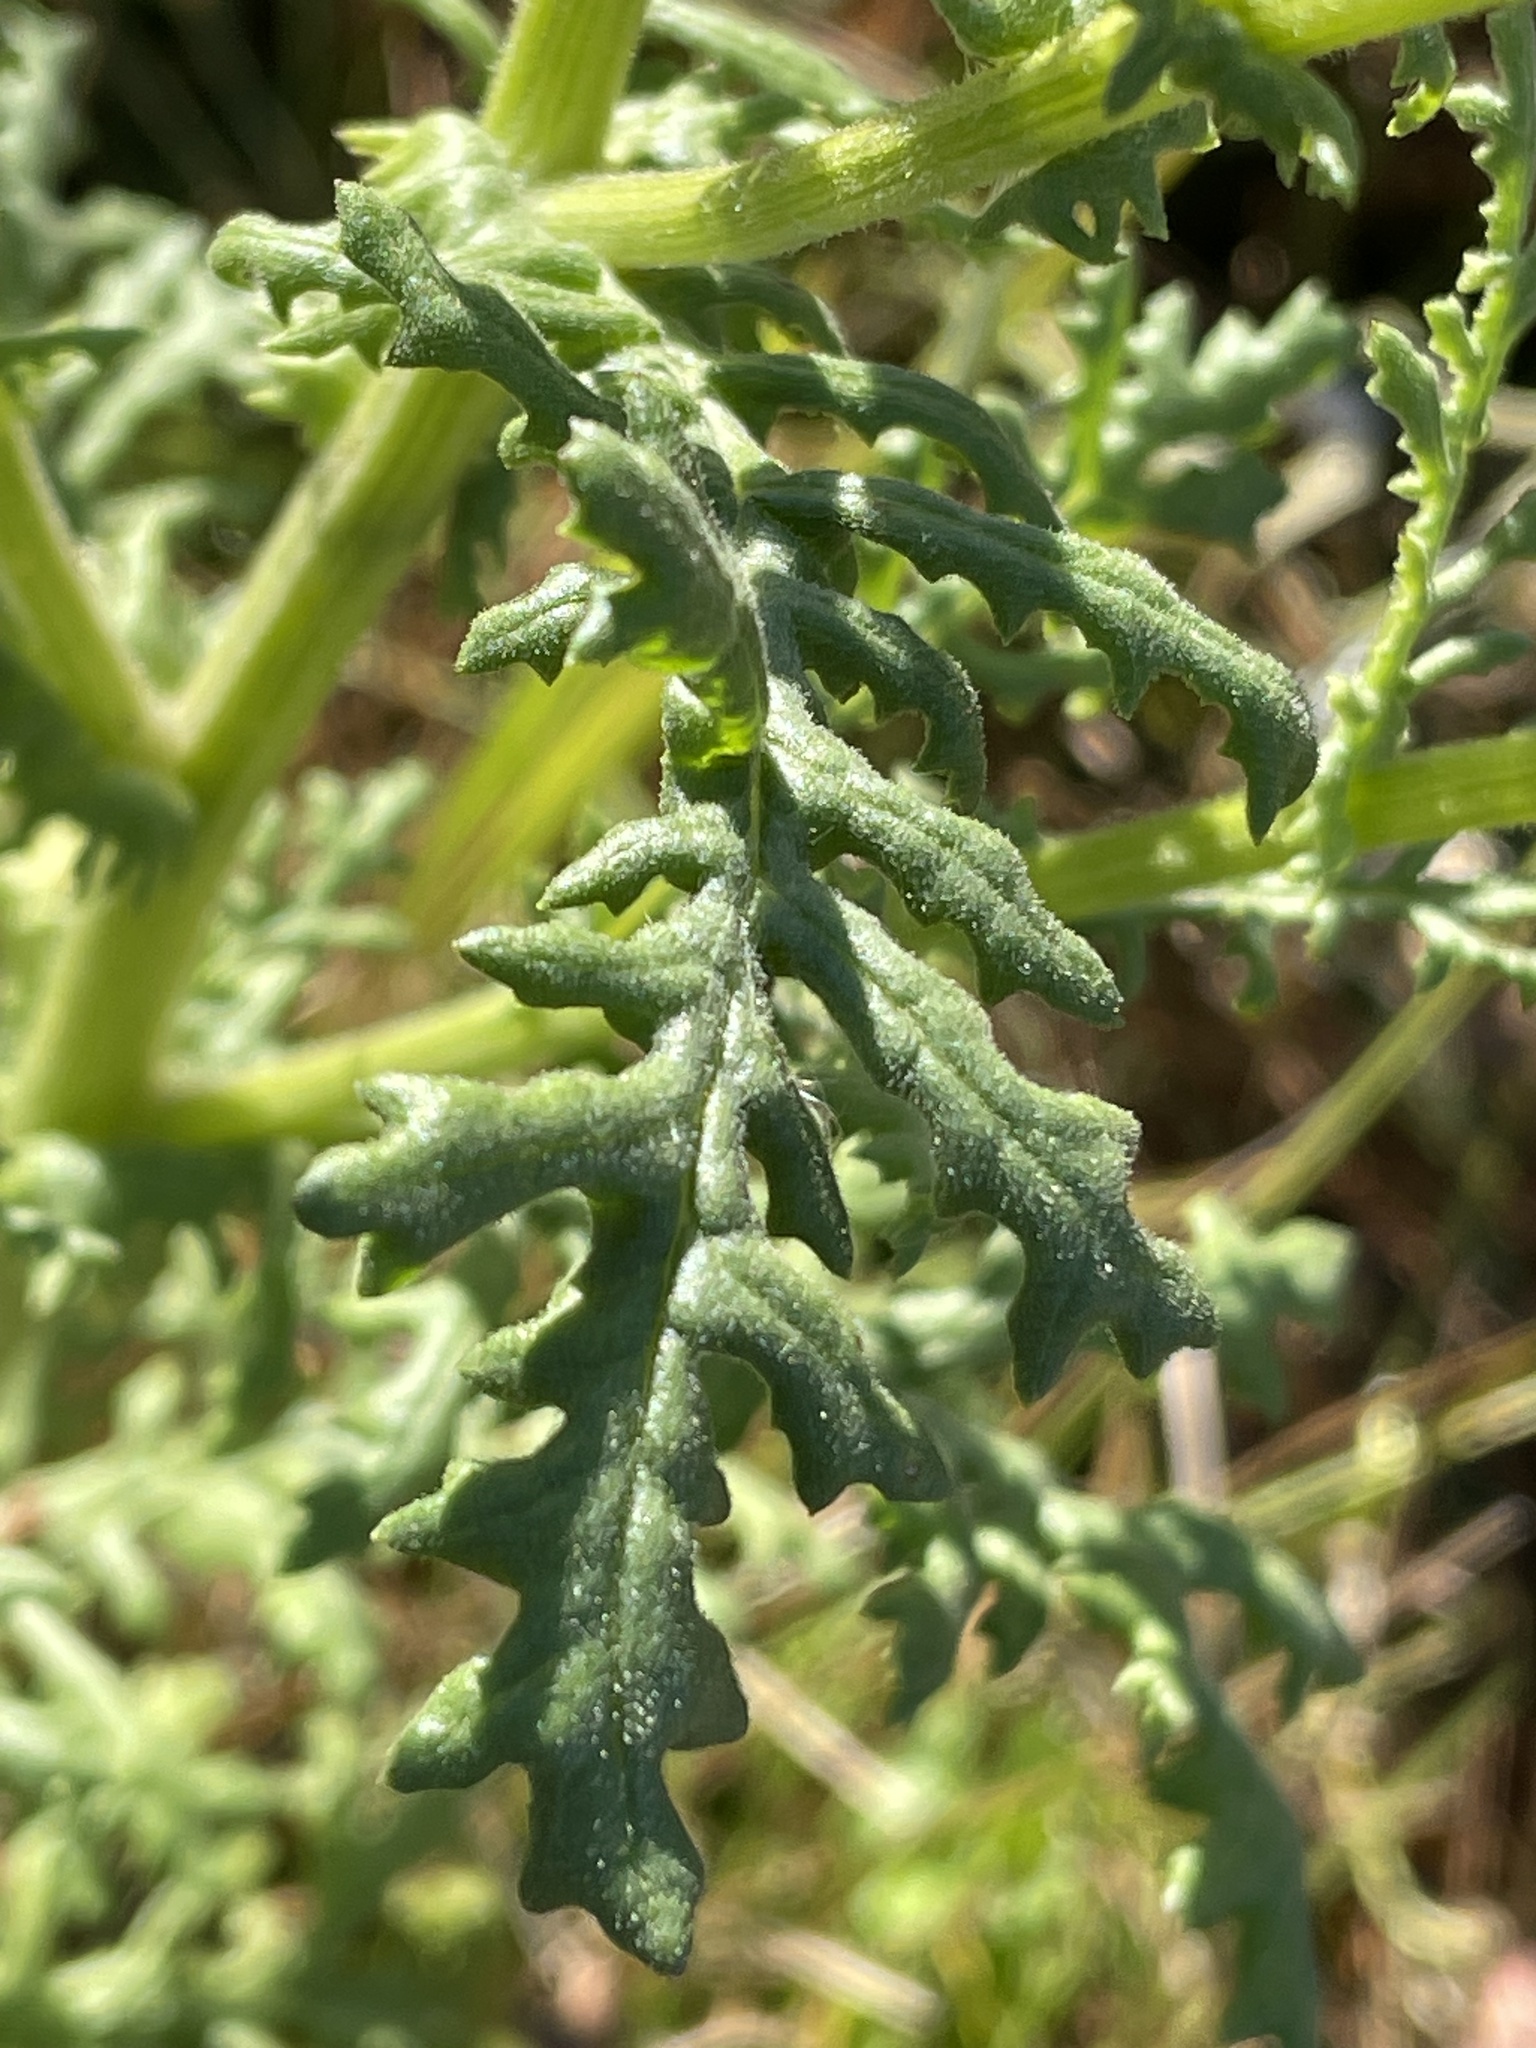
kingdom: Plantae
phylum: Tracheophyta
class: Magnoliopsida
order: Asterales
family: Asteraceae
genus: Senecio
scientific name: Senecio sylvaticus
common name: Woodland ragwort
